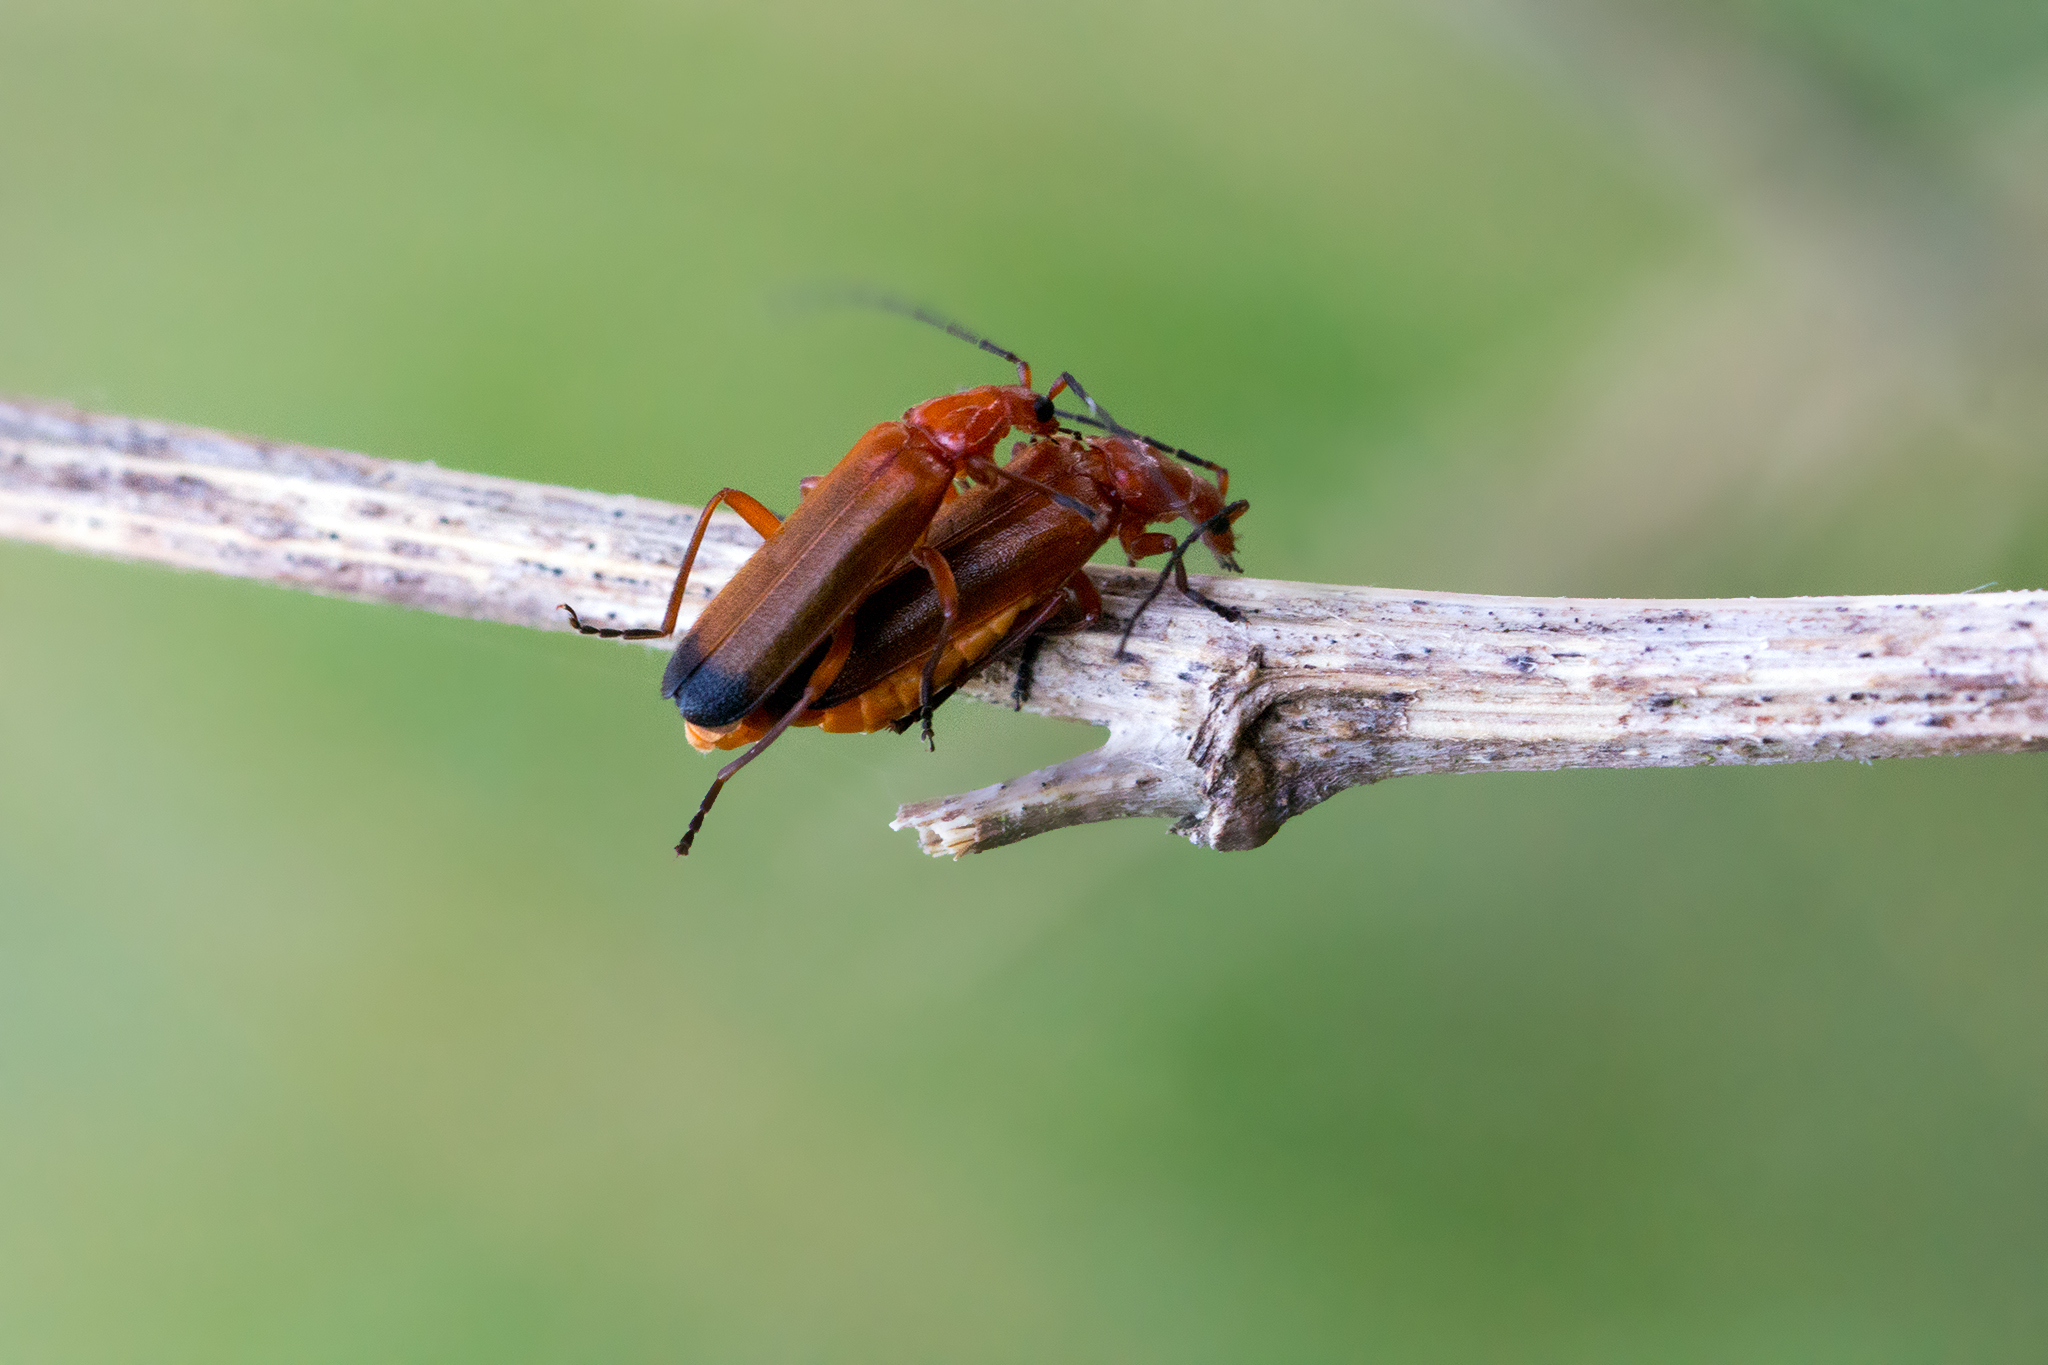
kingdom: Animalia
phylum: Arthropoda
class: Insecta
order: Coleoptera
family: Cantharidae
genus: Rhagonycha
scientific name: Rhagonycha fulva
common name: Common red soldier beetle
